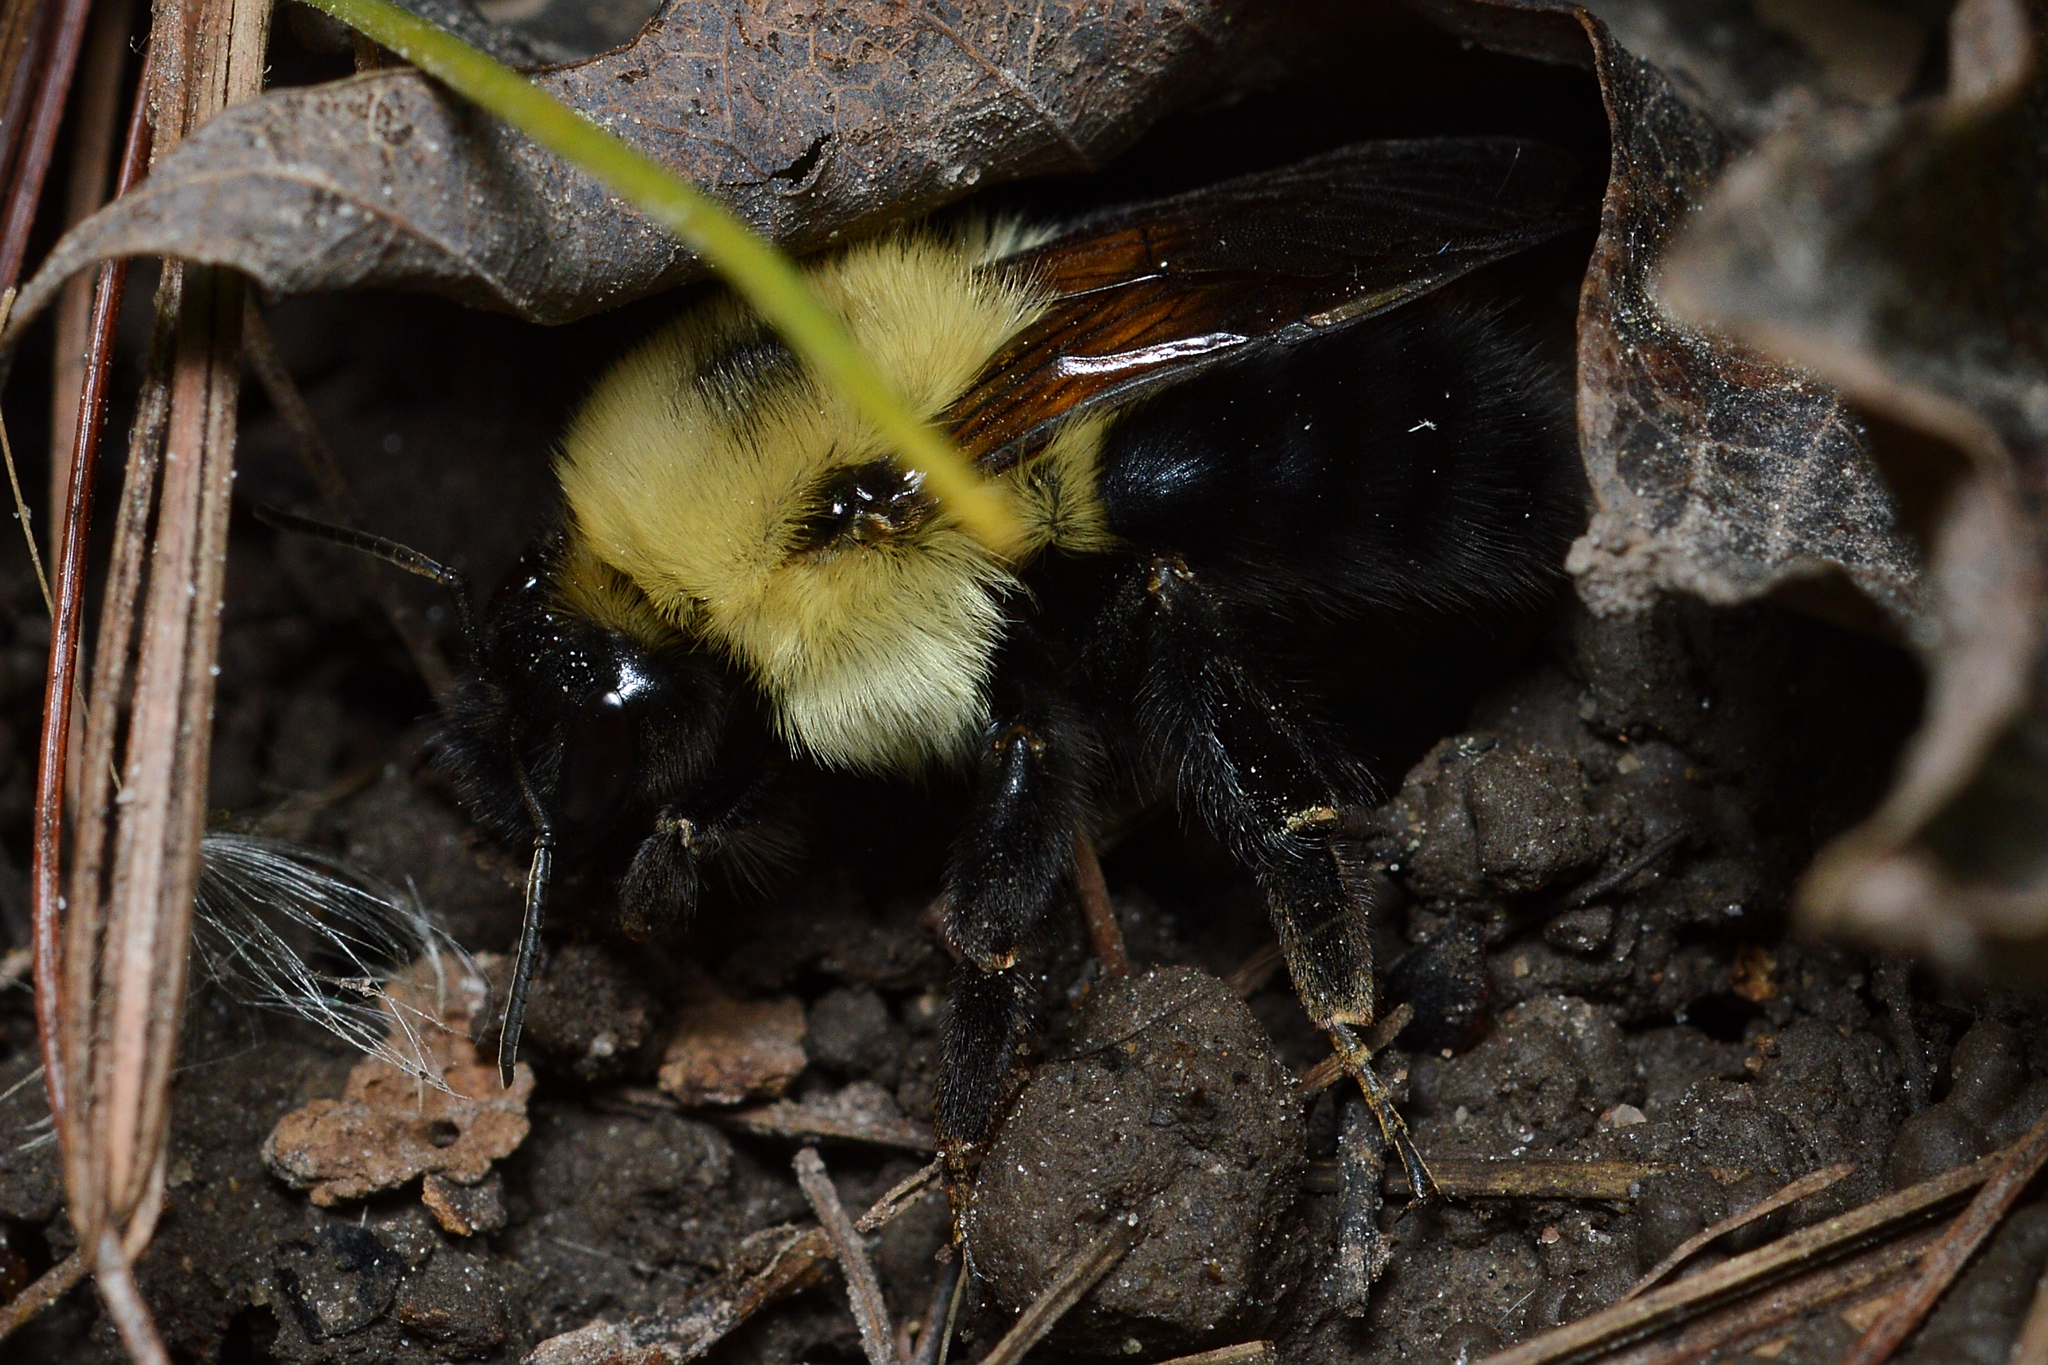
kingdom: Animalia
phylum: Arthropoda
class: Insecta
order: Hymenoptera
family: Apidae
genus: Bombus
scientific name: Bombus bimaculatus
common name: Two-spotted bumble bee
